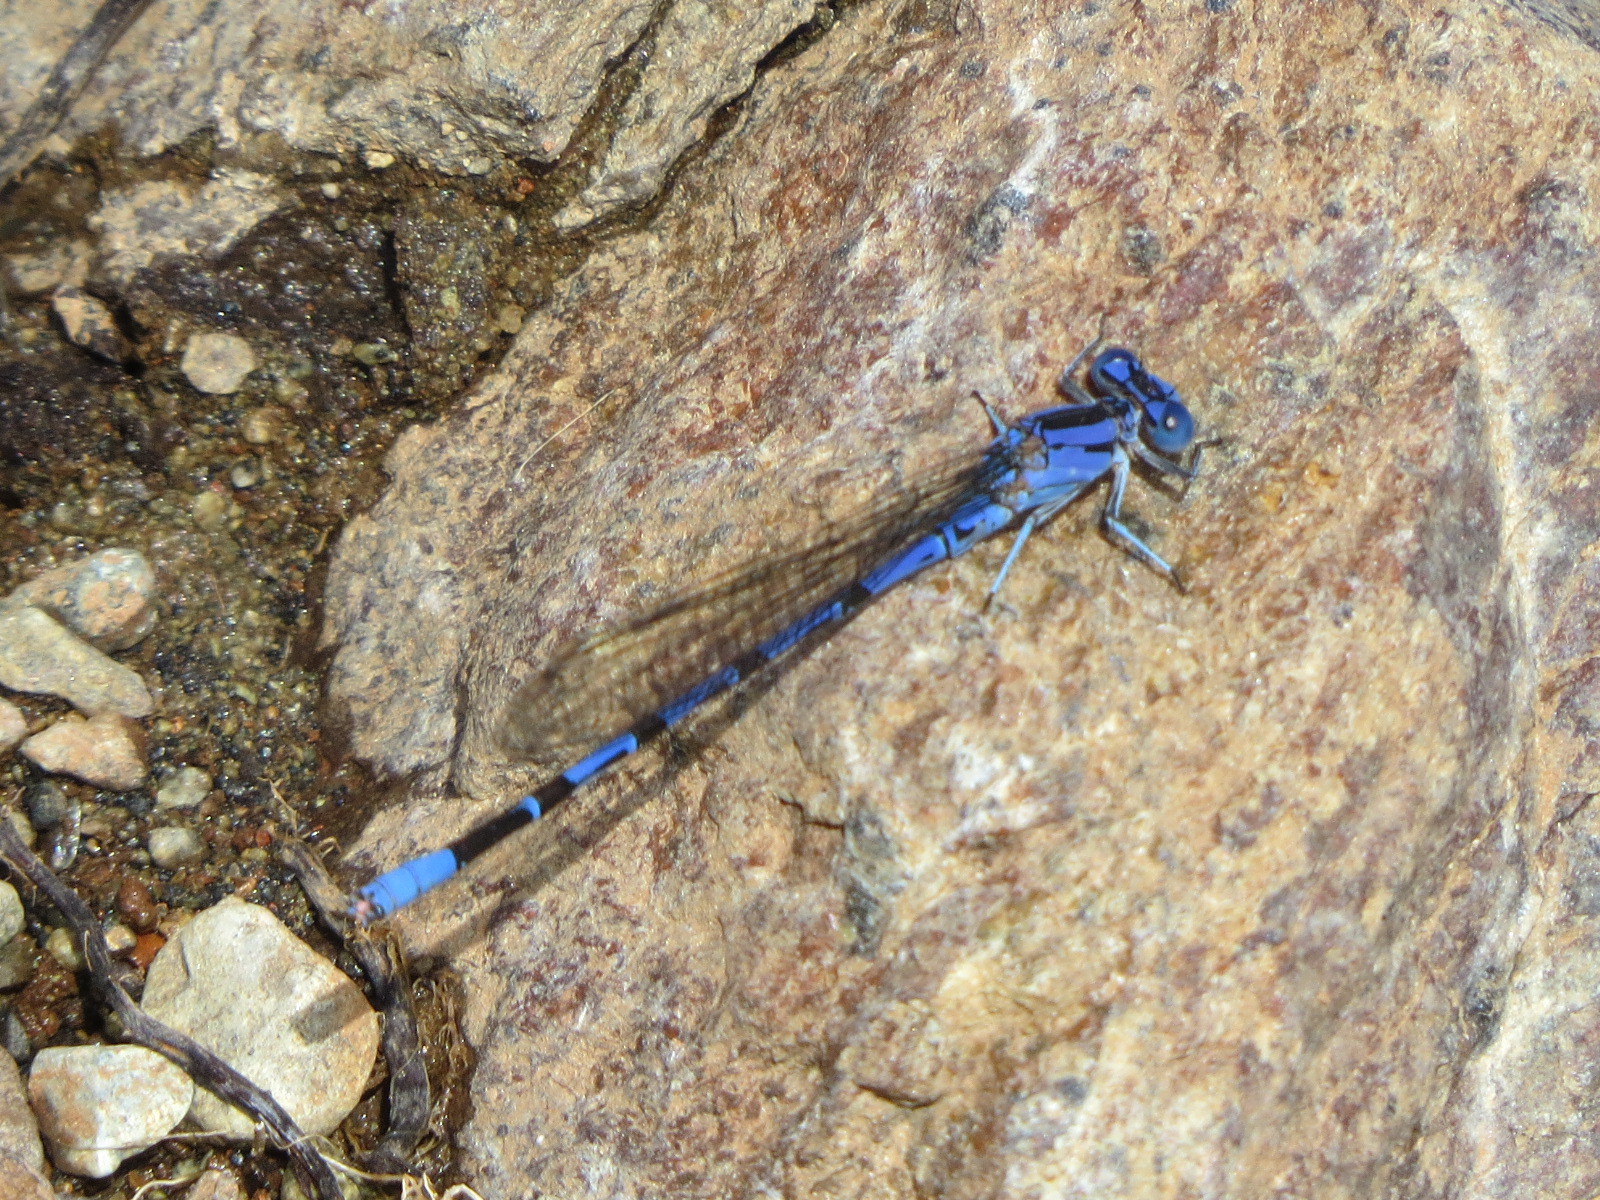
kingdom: Animalia
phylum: Arthropoda
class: Insecta
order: Odonata
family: Coenagrionidae
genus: Argia
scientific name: Argia vivida
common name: Vivid dancer
